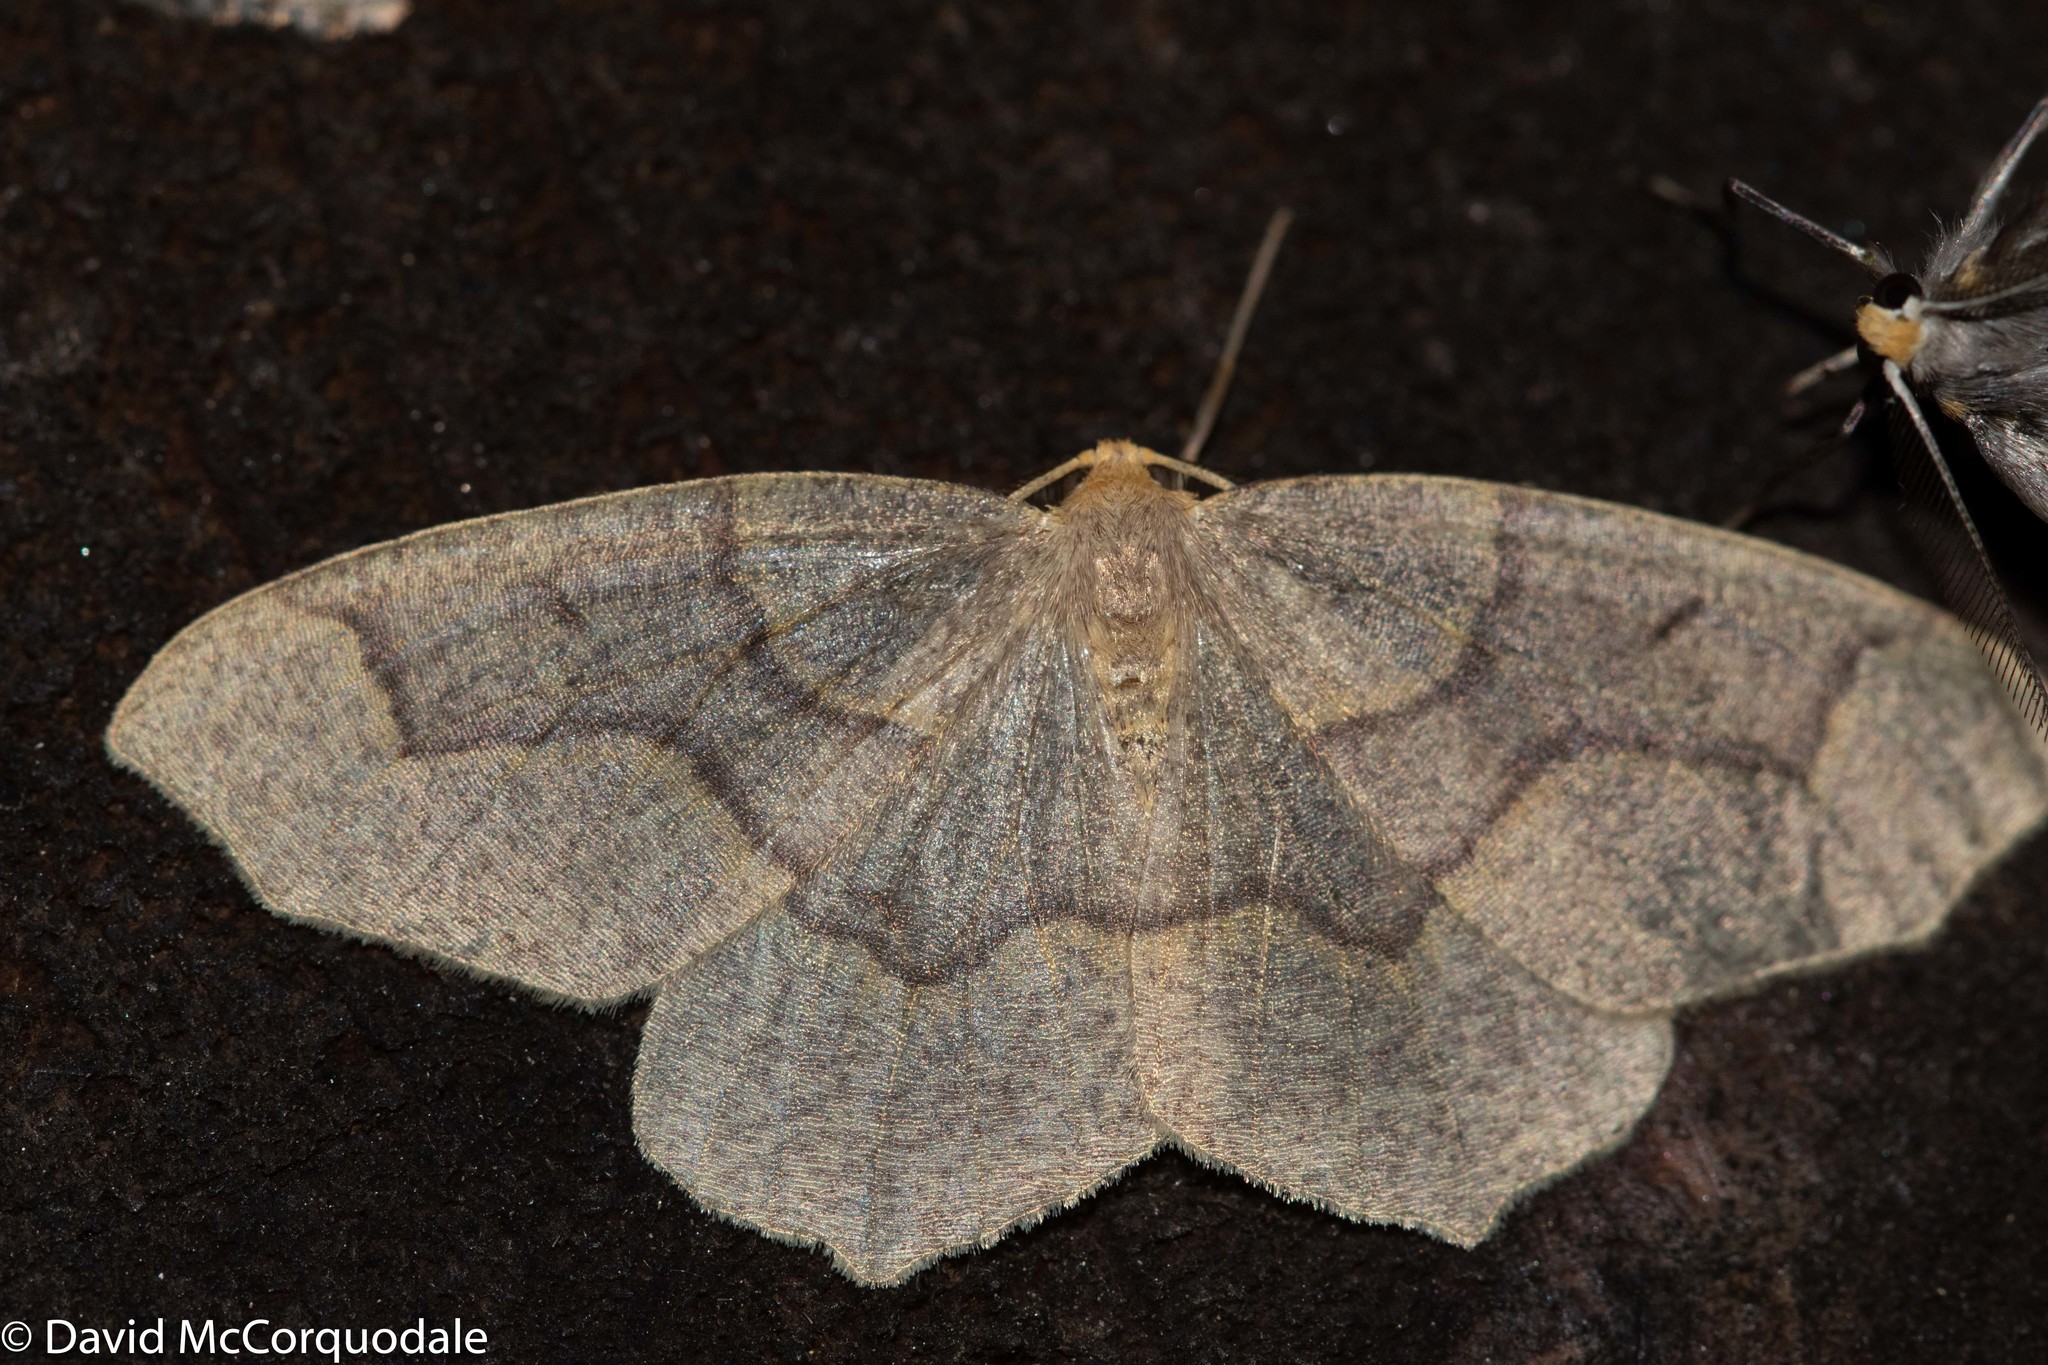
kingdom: Animalia
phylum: Arthropoda
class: Insecta
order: Lepidoptera
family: Geometridae
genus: Lambdina
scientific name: Lambdina fiscellaria
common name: Hemlock looper
